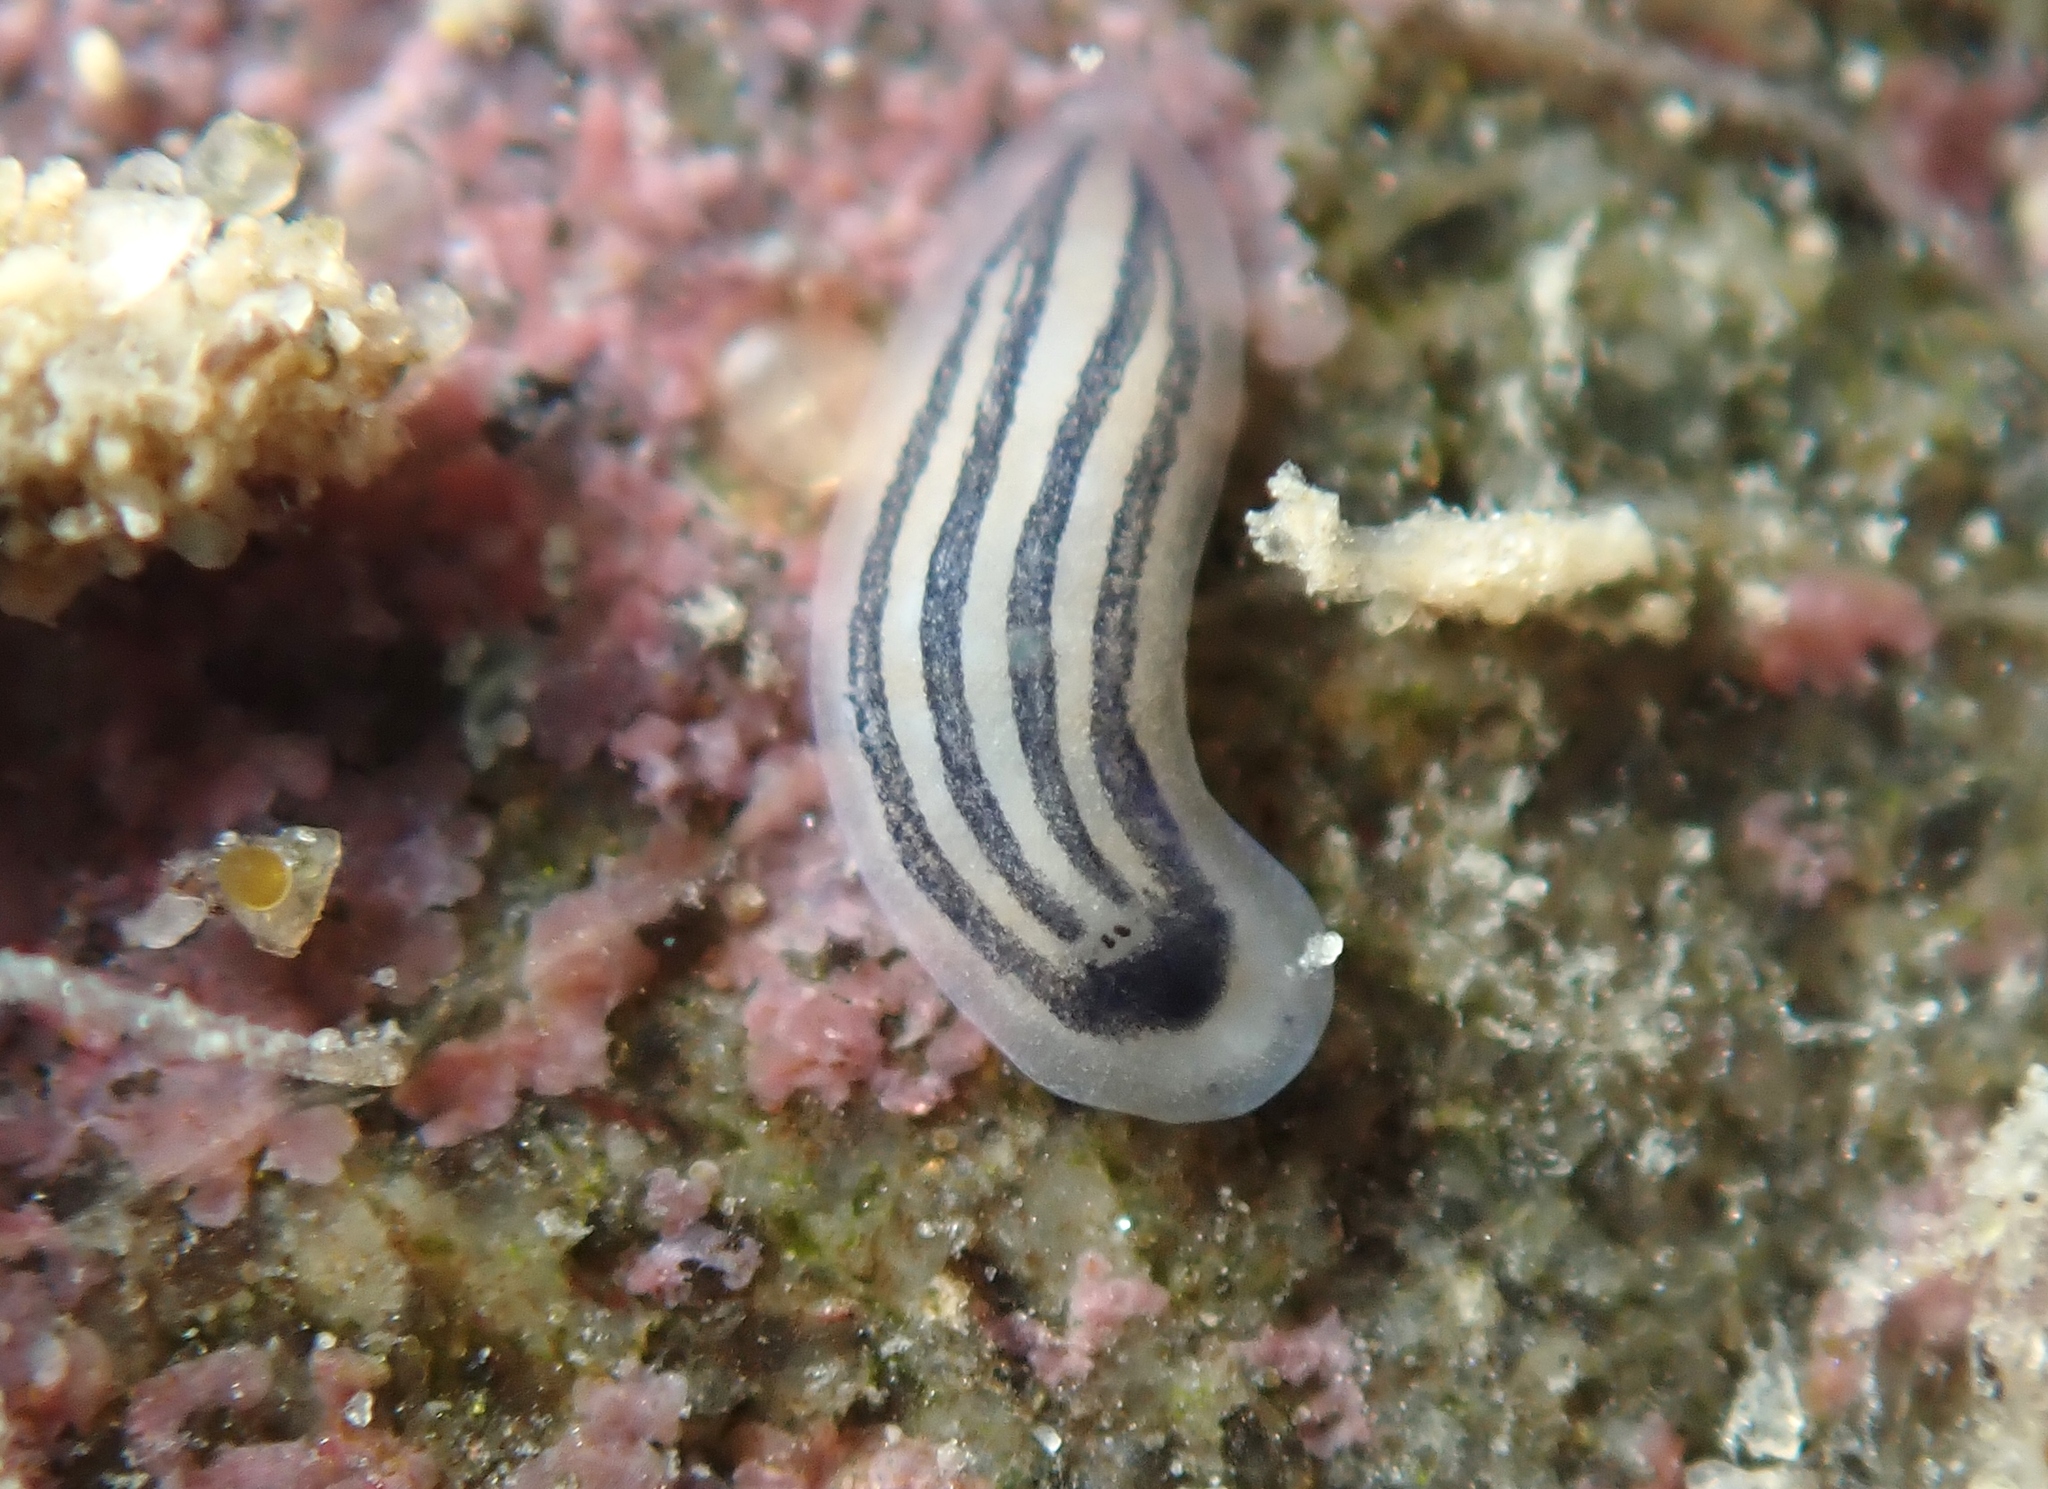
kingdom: Animalia
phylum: Platyhelminthes
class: Turbellaria
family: Chromoplanidae
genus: Chromoplana
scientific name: Chromoplana kaikouris
